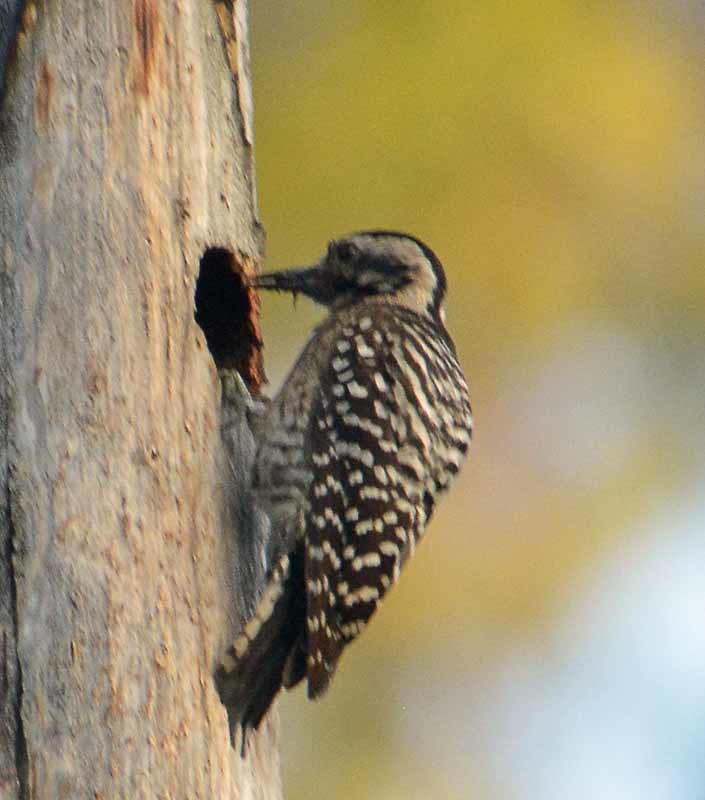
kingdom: Animalia
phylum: Chordata
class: Aves
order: Piciformes
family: Picidae
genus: Dryobates
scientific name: Dryobates scalaris
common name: Ladder-backed woodpecker
